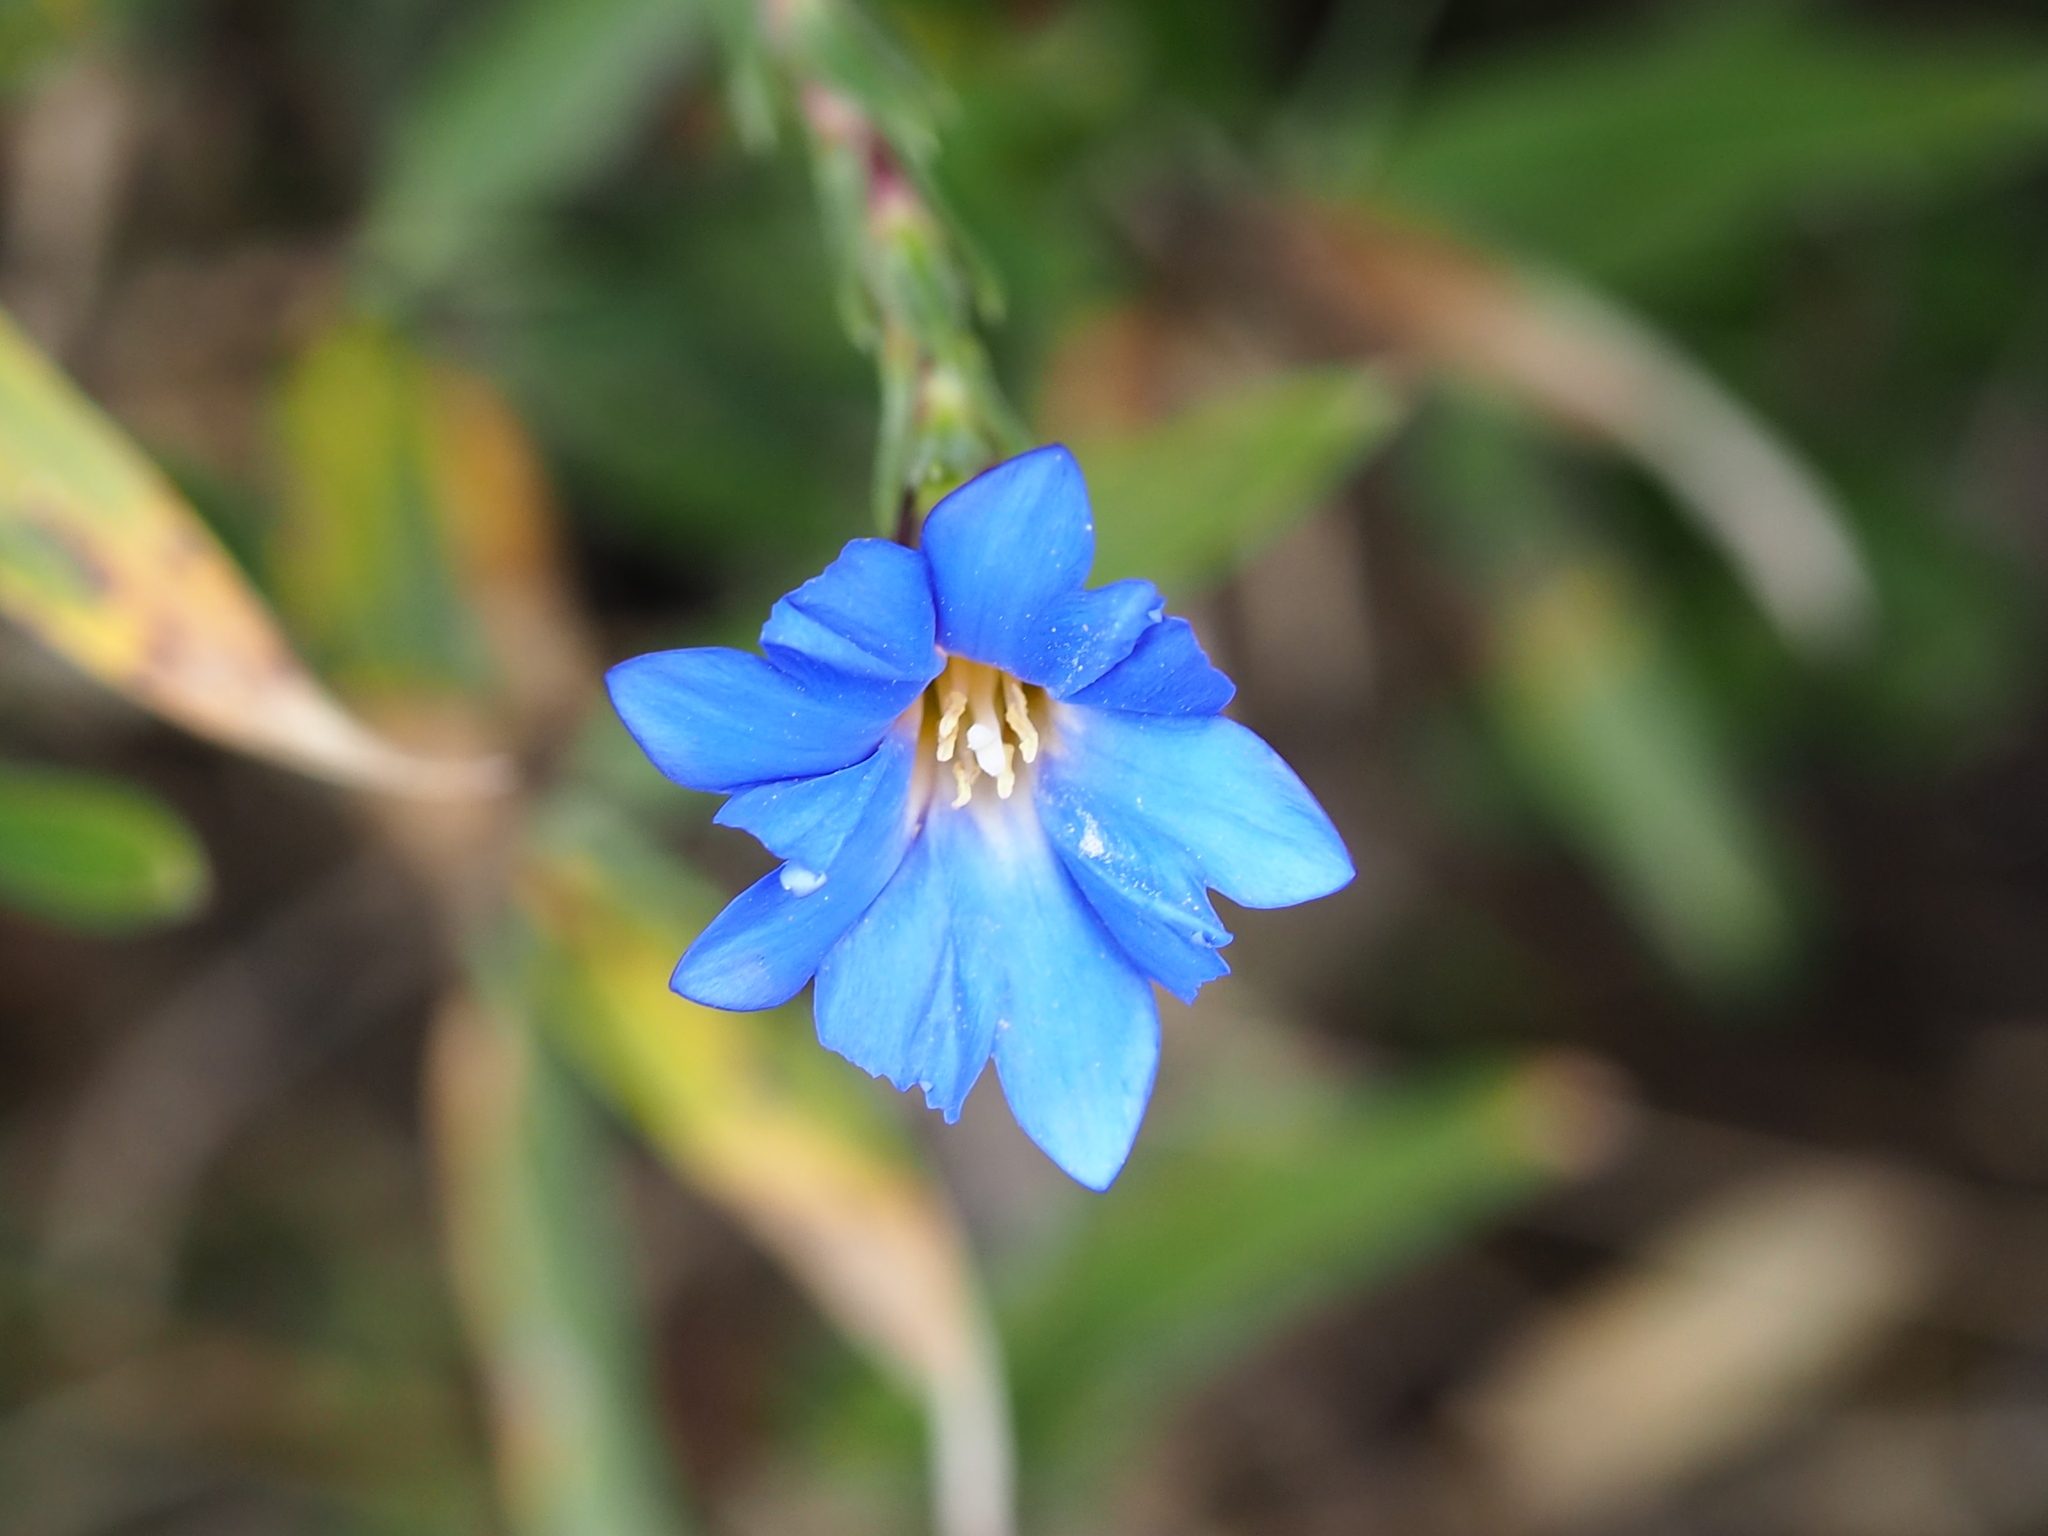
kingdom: Plantae
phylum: Tracheophyta
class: Magnoliopsida
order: Gentianales
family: Gentianaceae
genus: Gentiana
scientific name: Gentiana arisanensis
